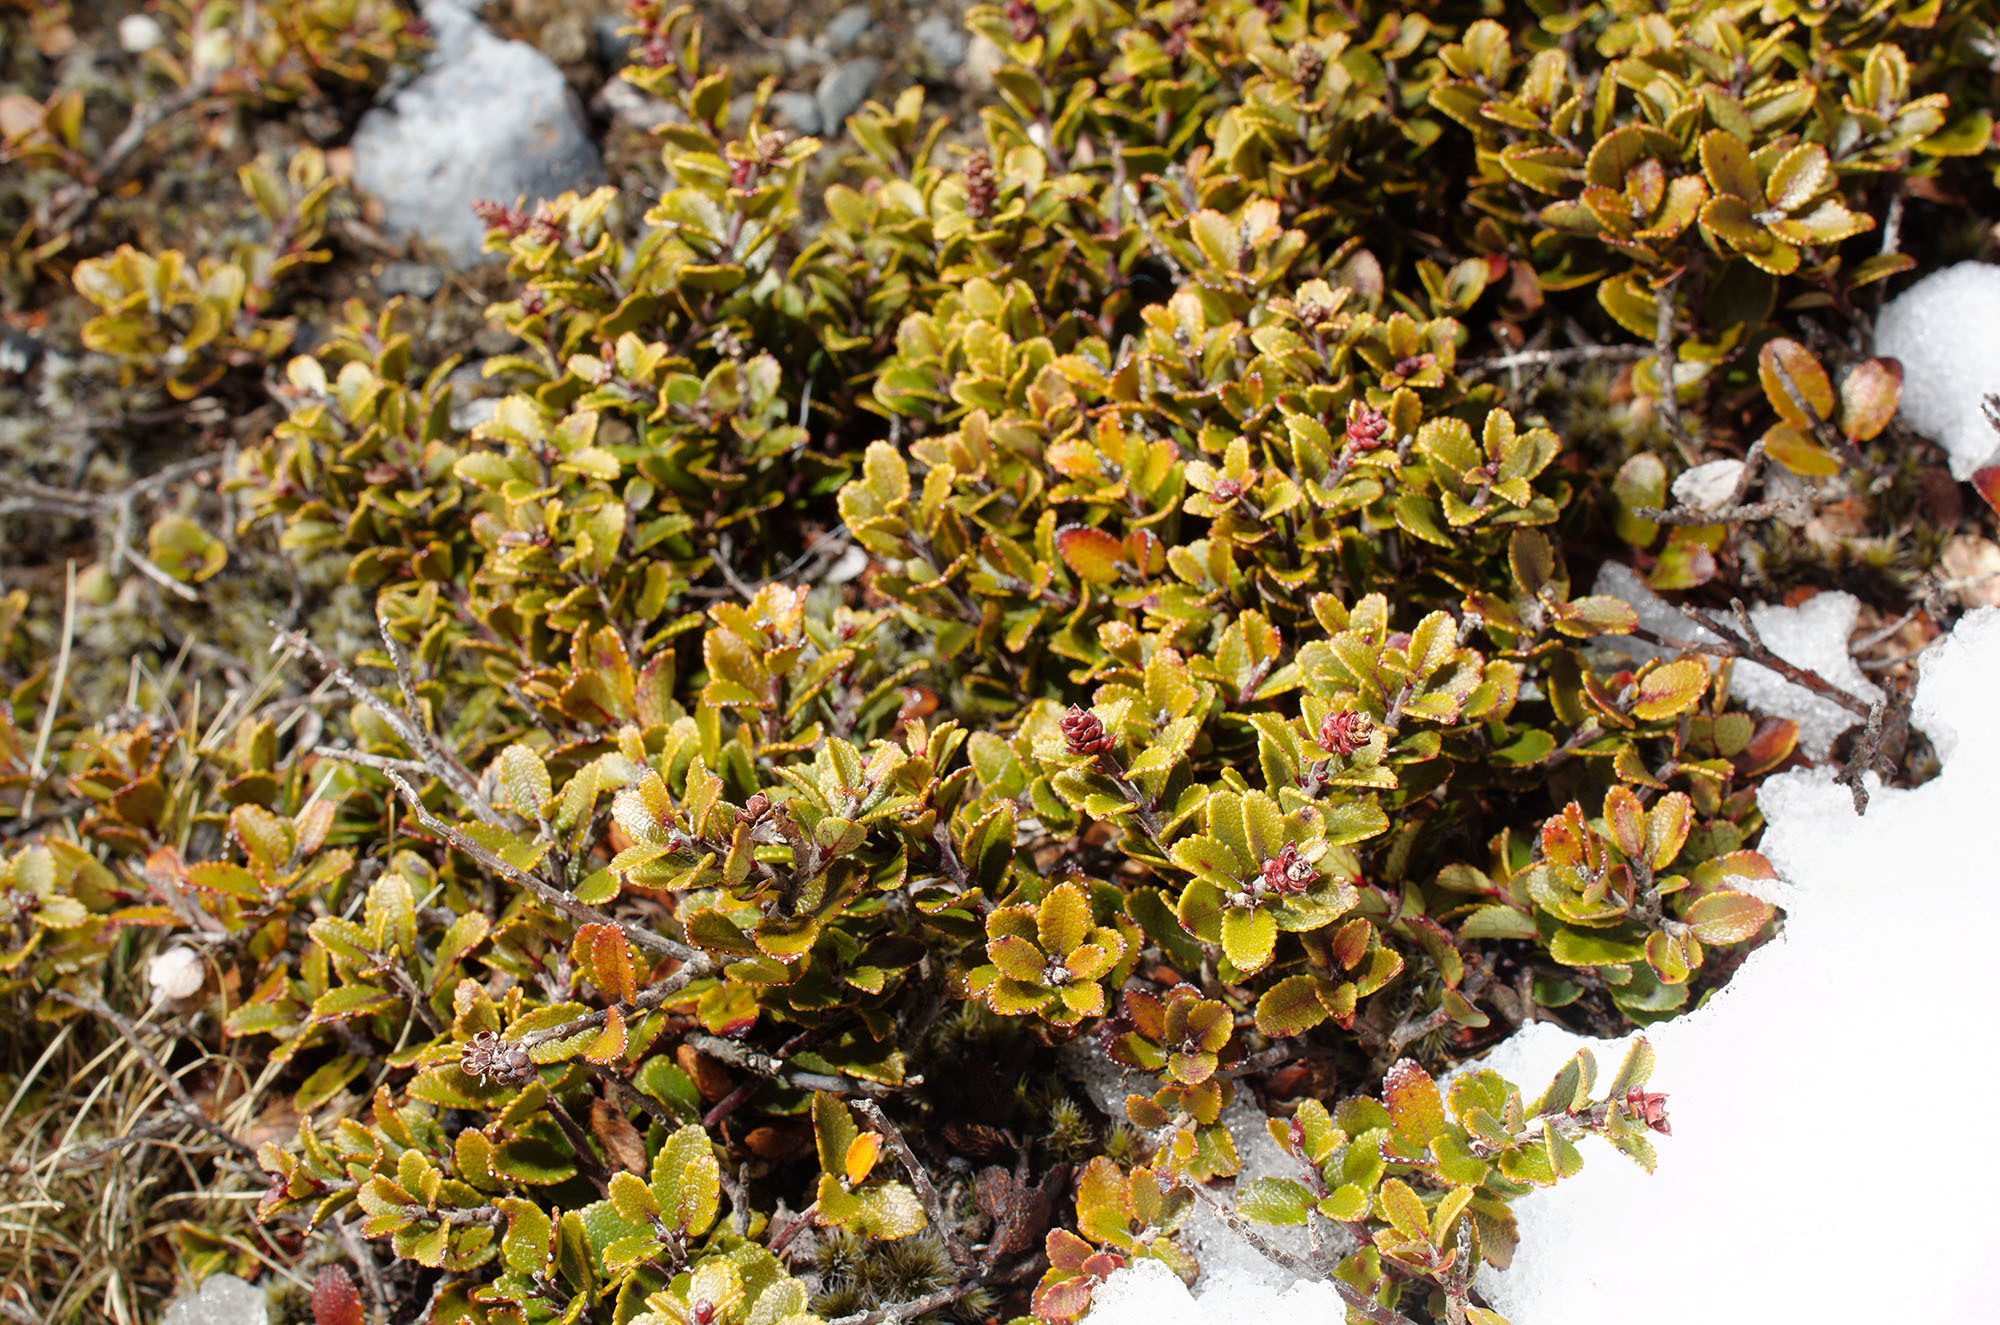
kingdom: Plantae
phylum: Tracheophyta
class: Magnoliopsida
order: Ericales
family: Ericaceae
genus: Gaultheria
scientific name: Gaultheria colensoi
